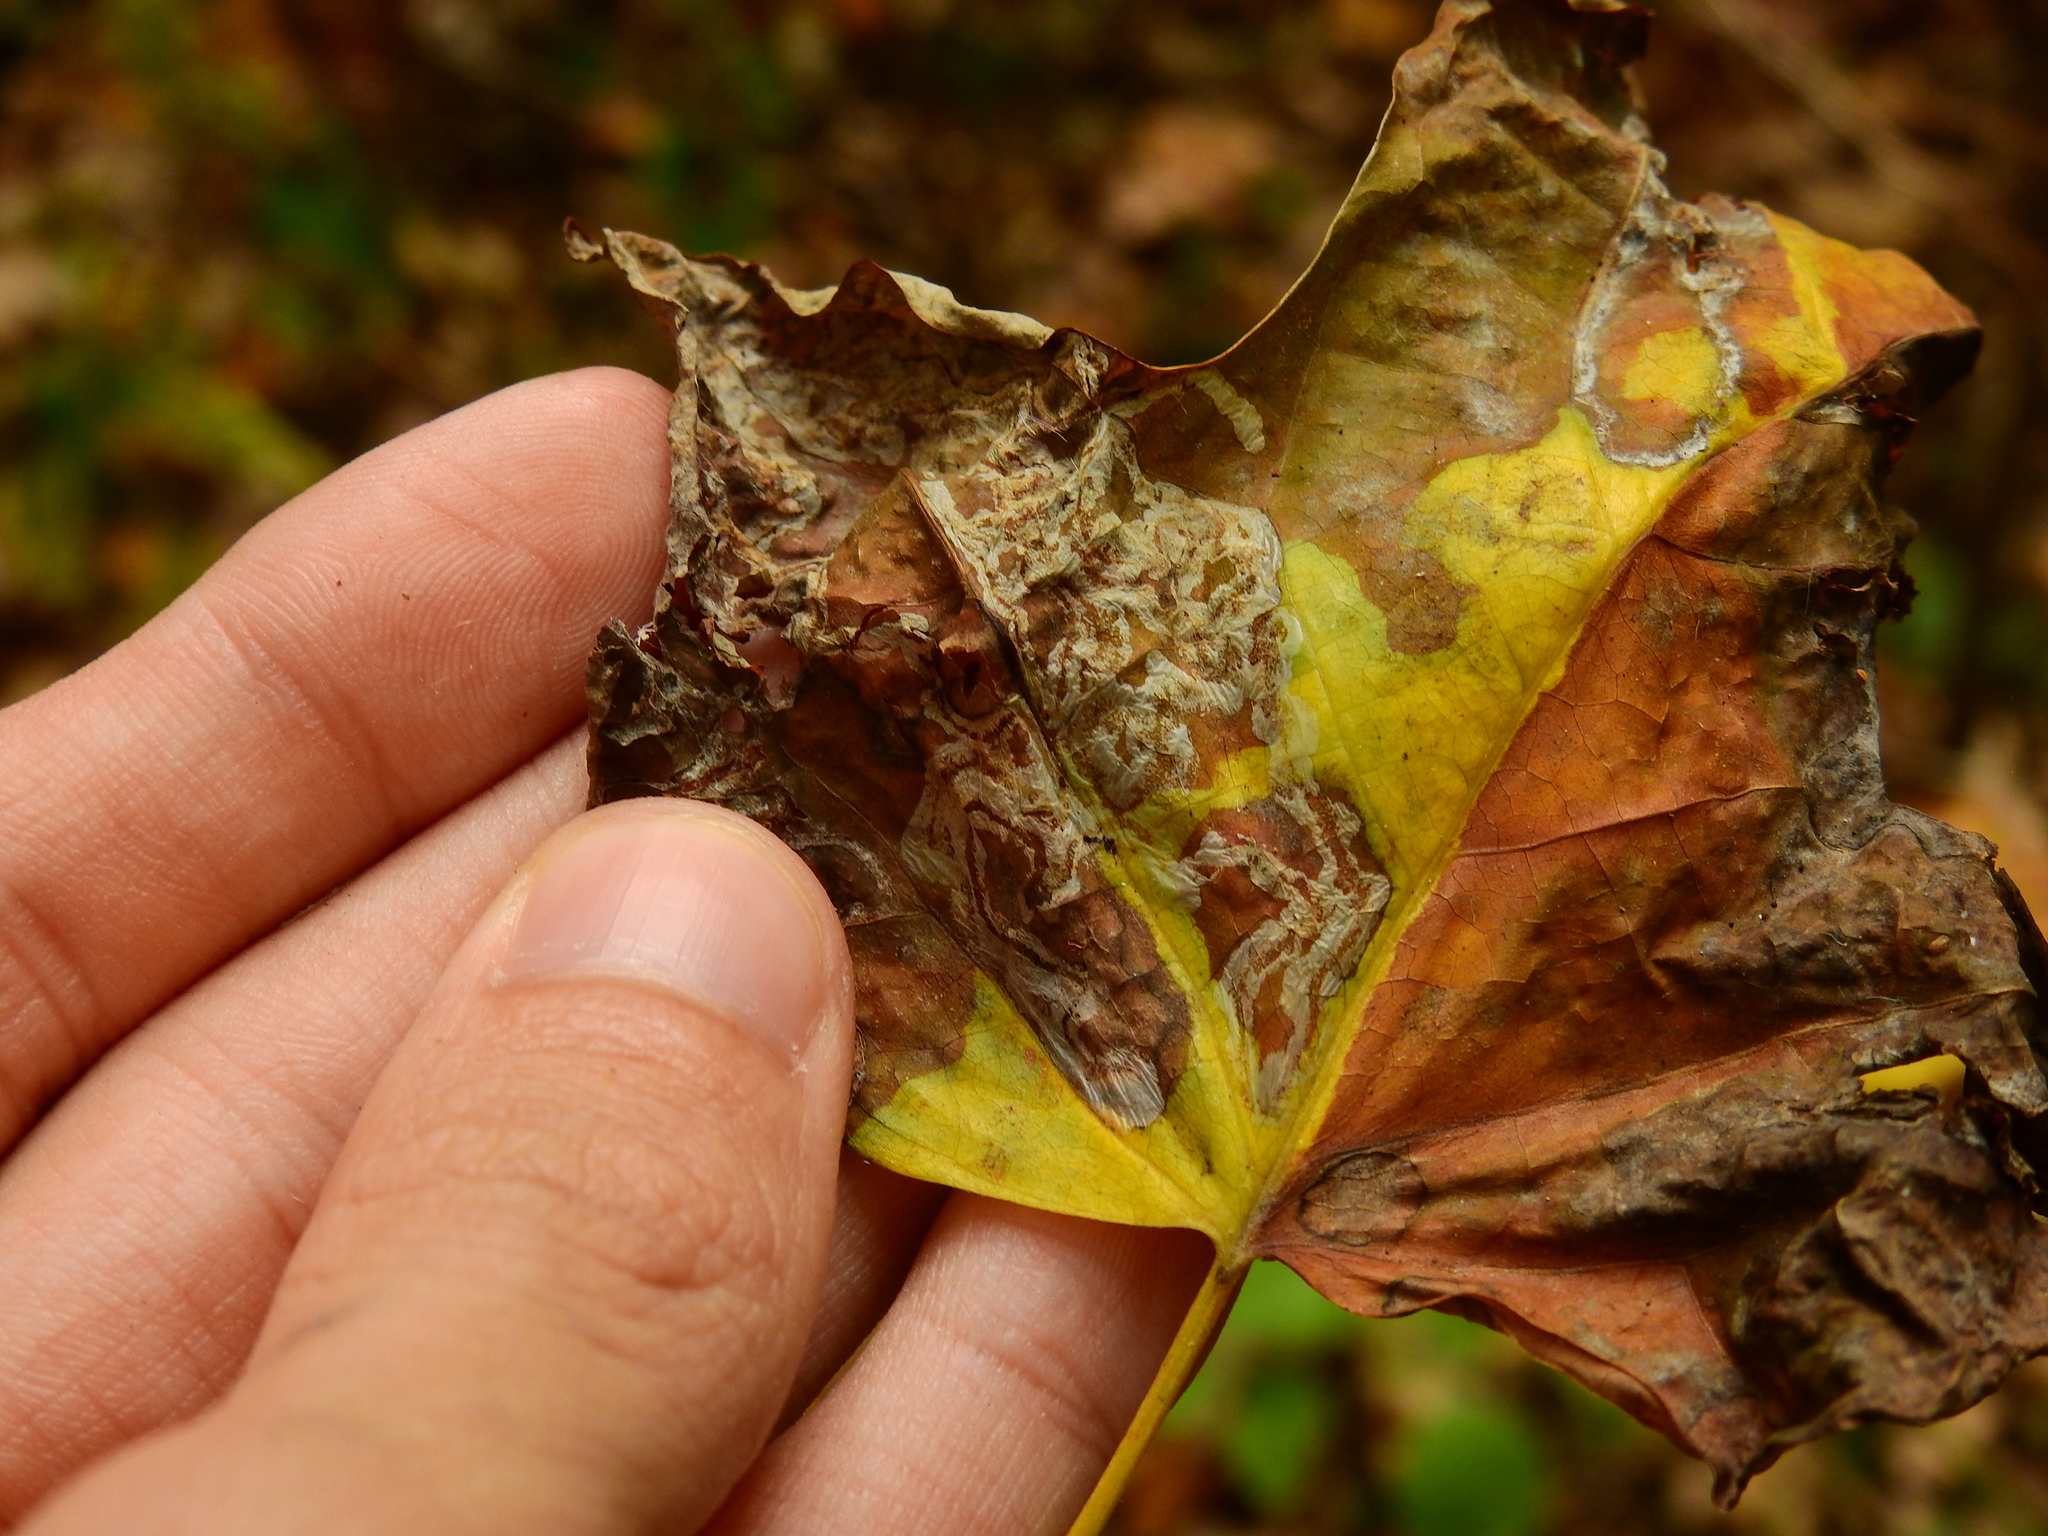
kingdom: Animalia
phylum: Arthropoda
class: Insecta
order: Lepidoptera
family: Gracillariidae
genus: Phyllocnistis
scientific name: Phyllocnistis liriodendronella
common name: Tulip tree leaf miner
